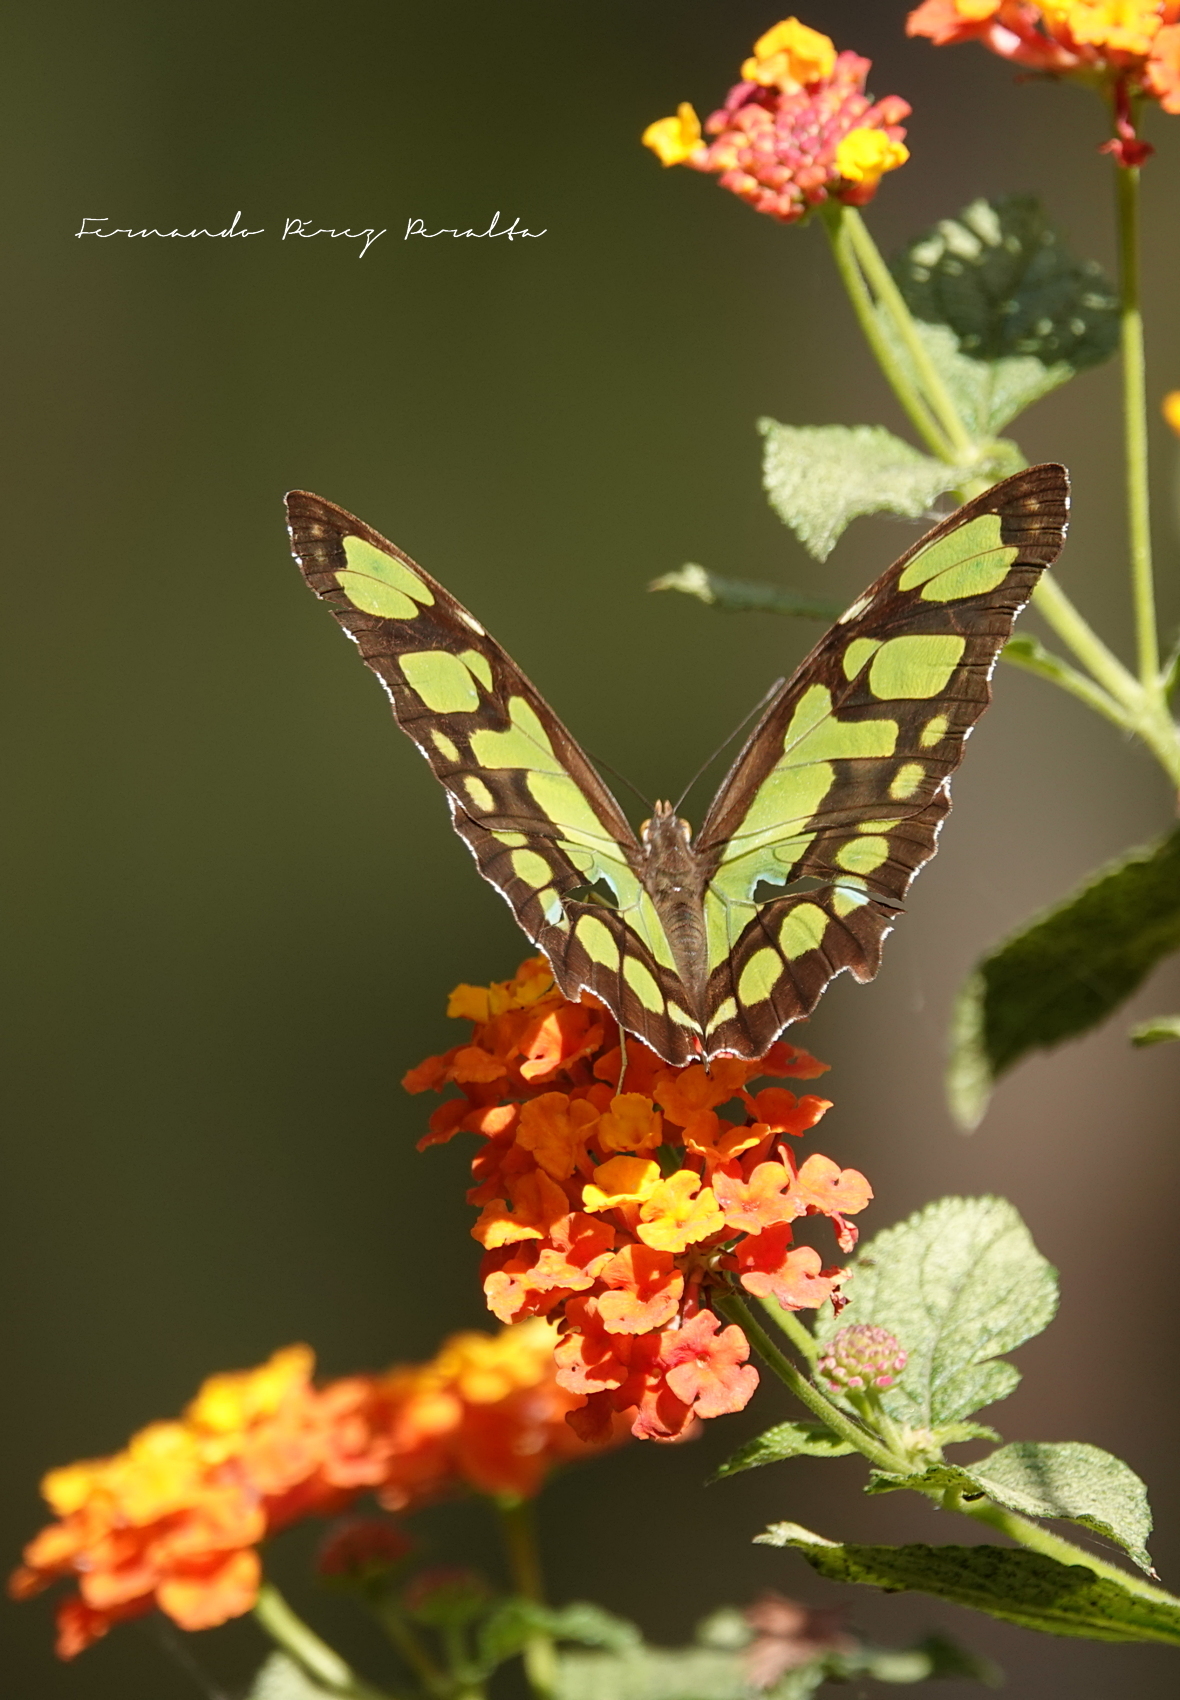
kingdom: Animalia
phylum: Arthropoda
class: Insecta
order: Lepidoptera
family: Nymphalidae
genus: Siproeta
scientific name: Siproeta stelenes
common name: Malachite
